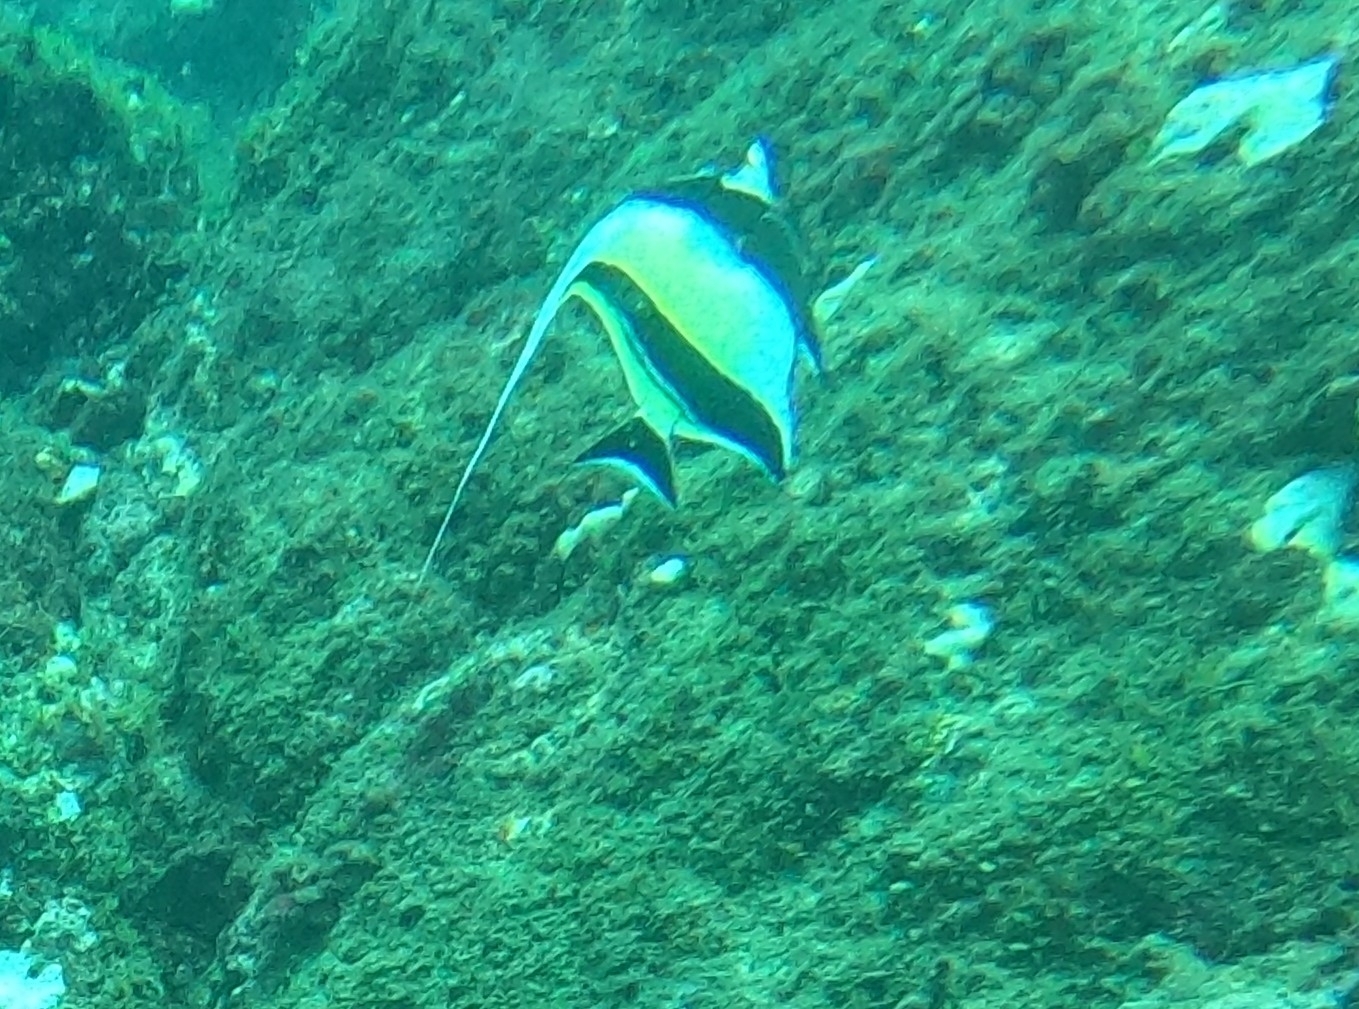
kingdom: Animalia
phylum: Chordata
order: Perciformes
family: Zanclidae
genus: Zanclus
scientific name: Zanclus cornutus
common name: Moorish idol
